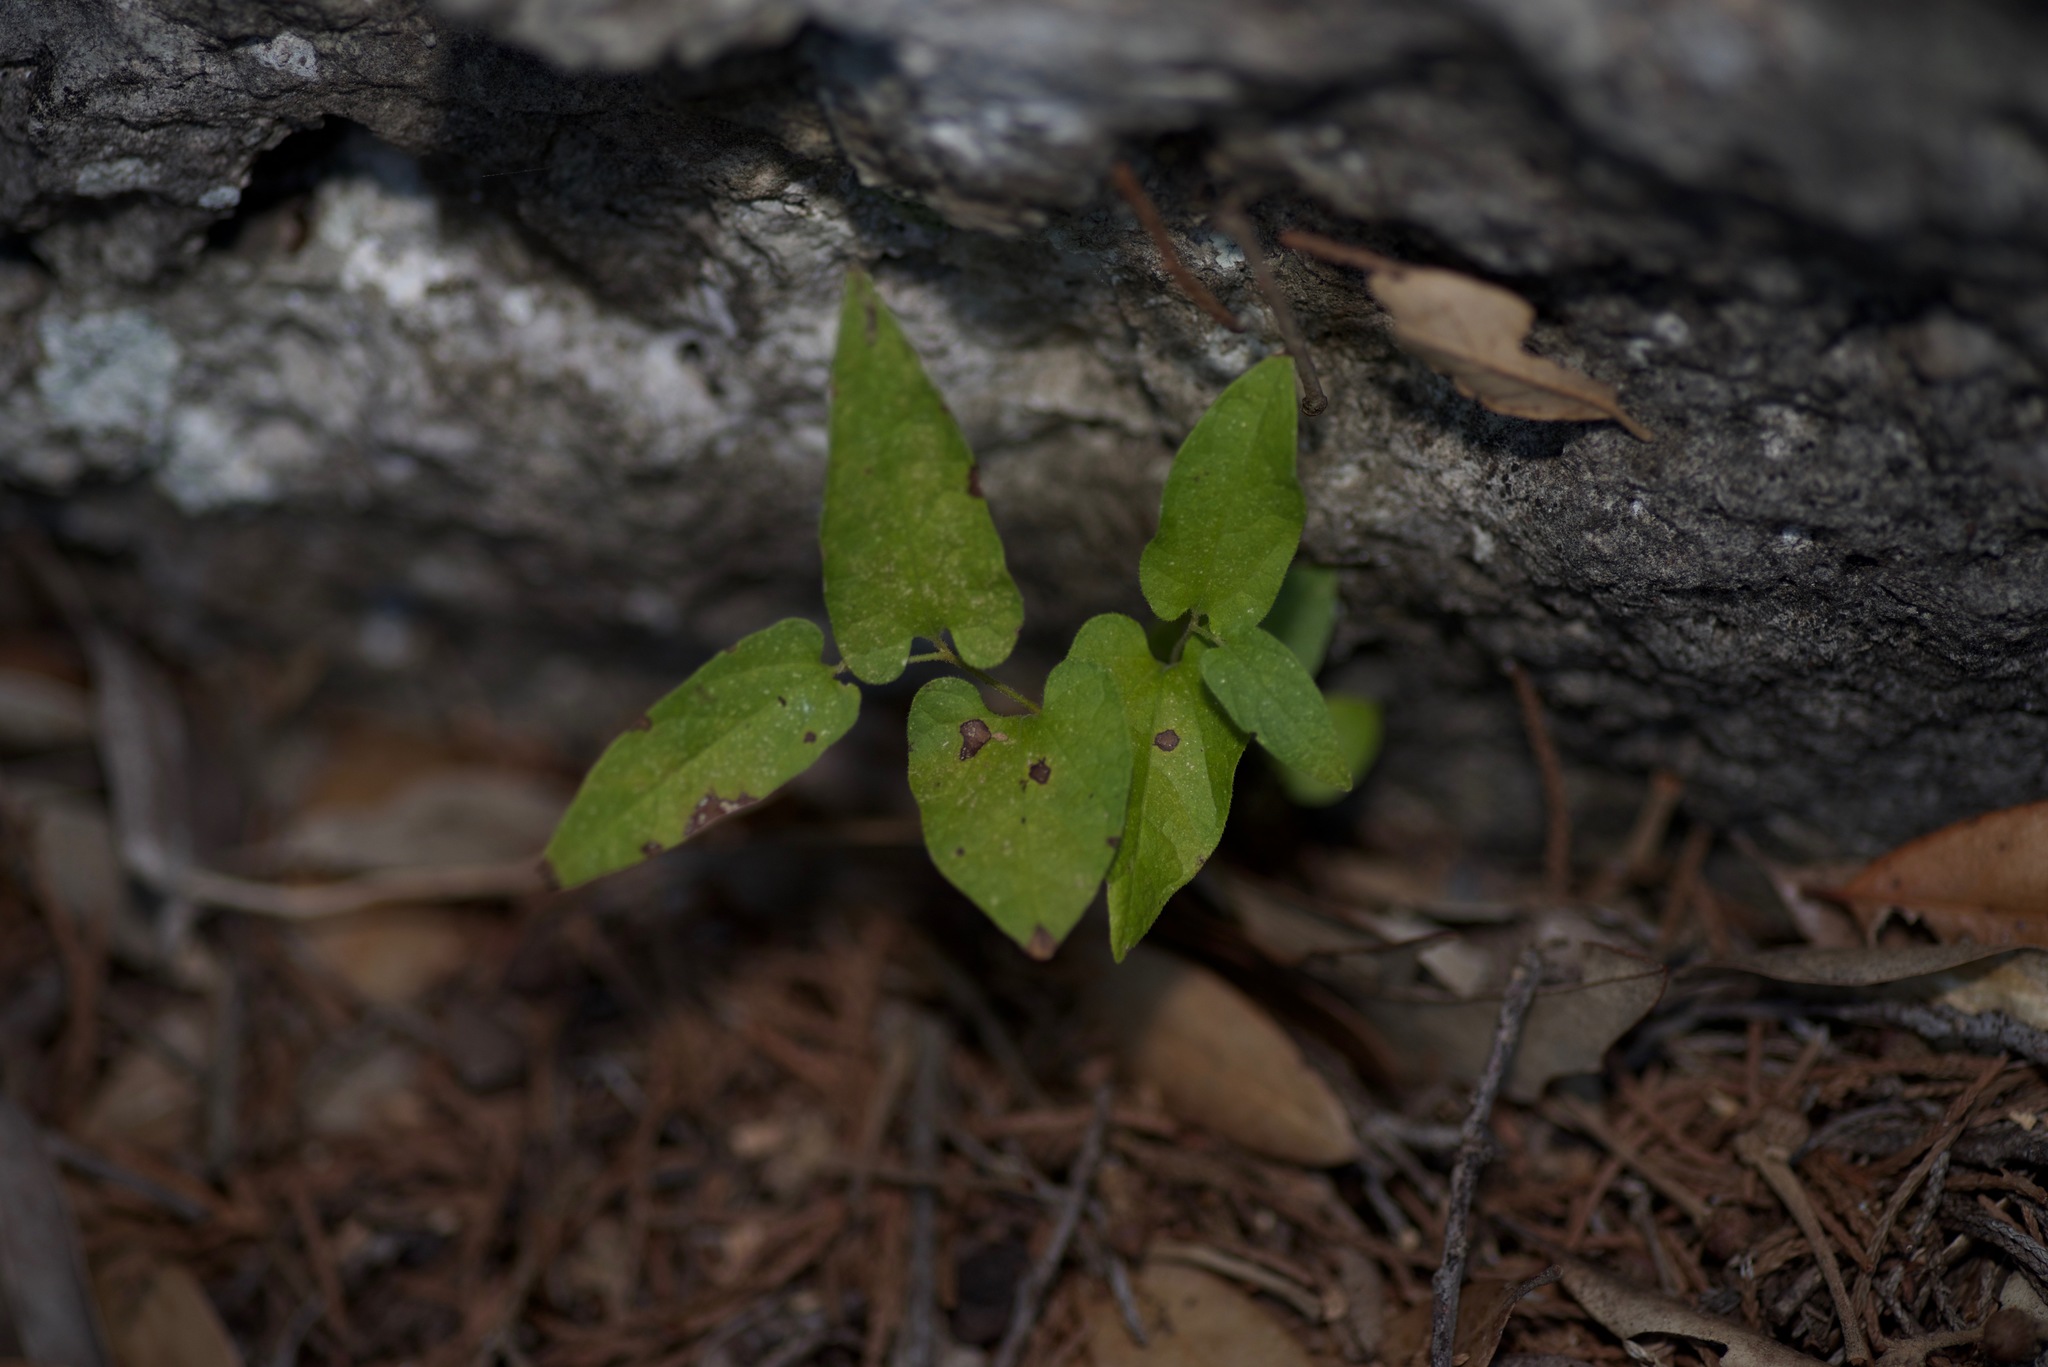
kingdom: Plantae
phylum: Tracheophyta
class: Magnoliopsida
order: Piperales
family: Aristolochiaceae
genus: Endodeca
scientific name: Endodeca serpentaria
